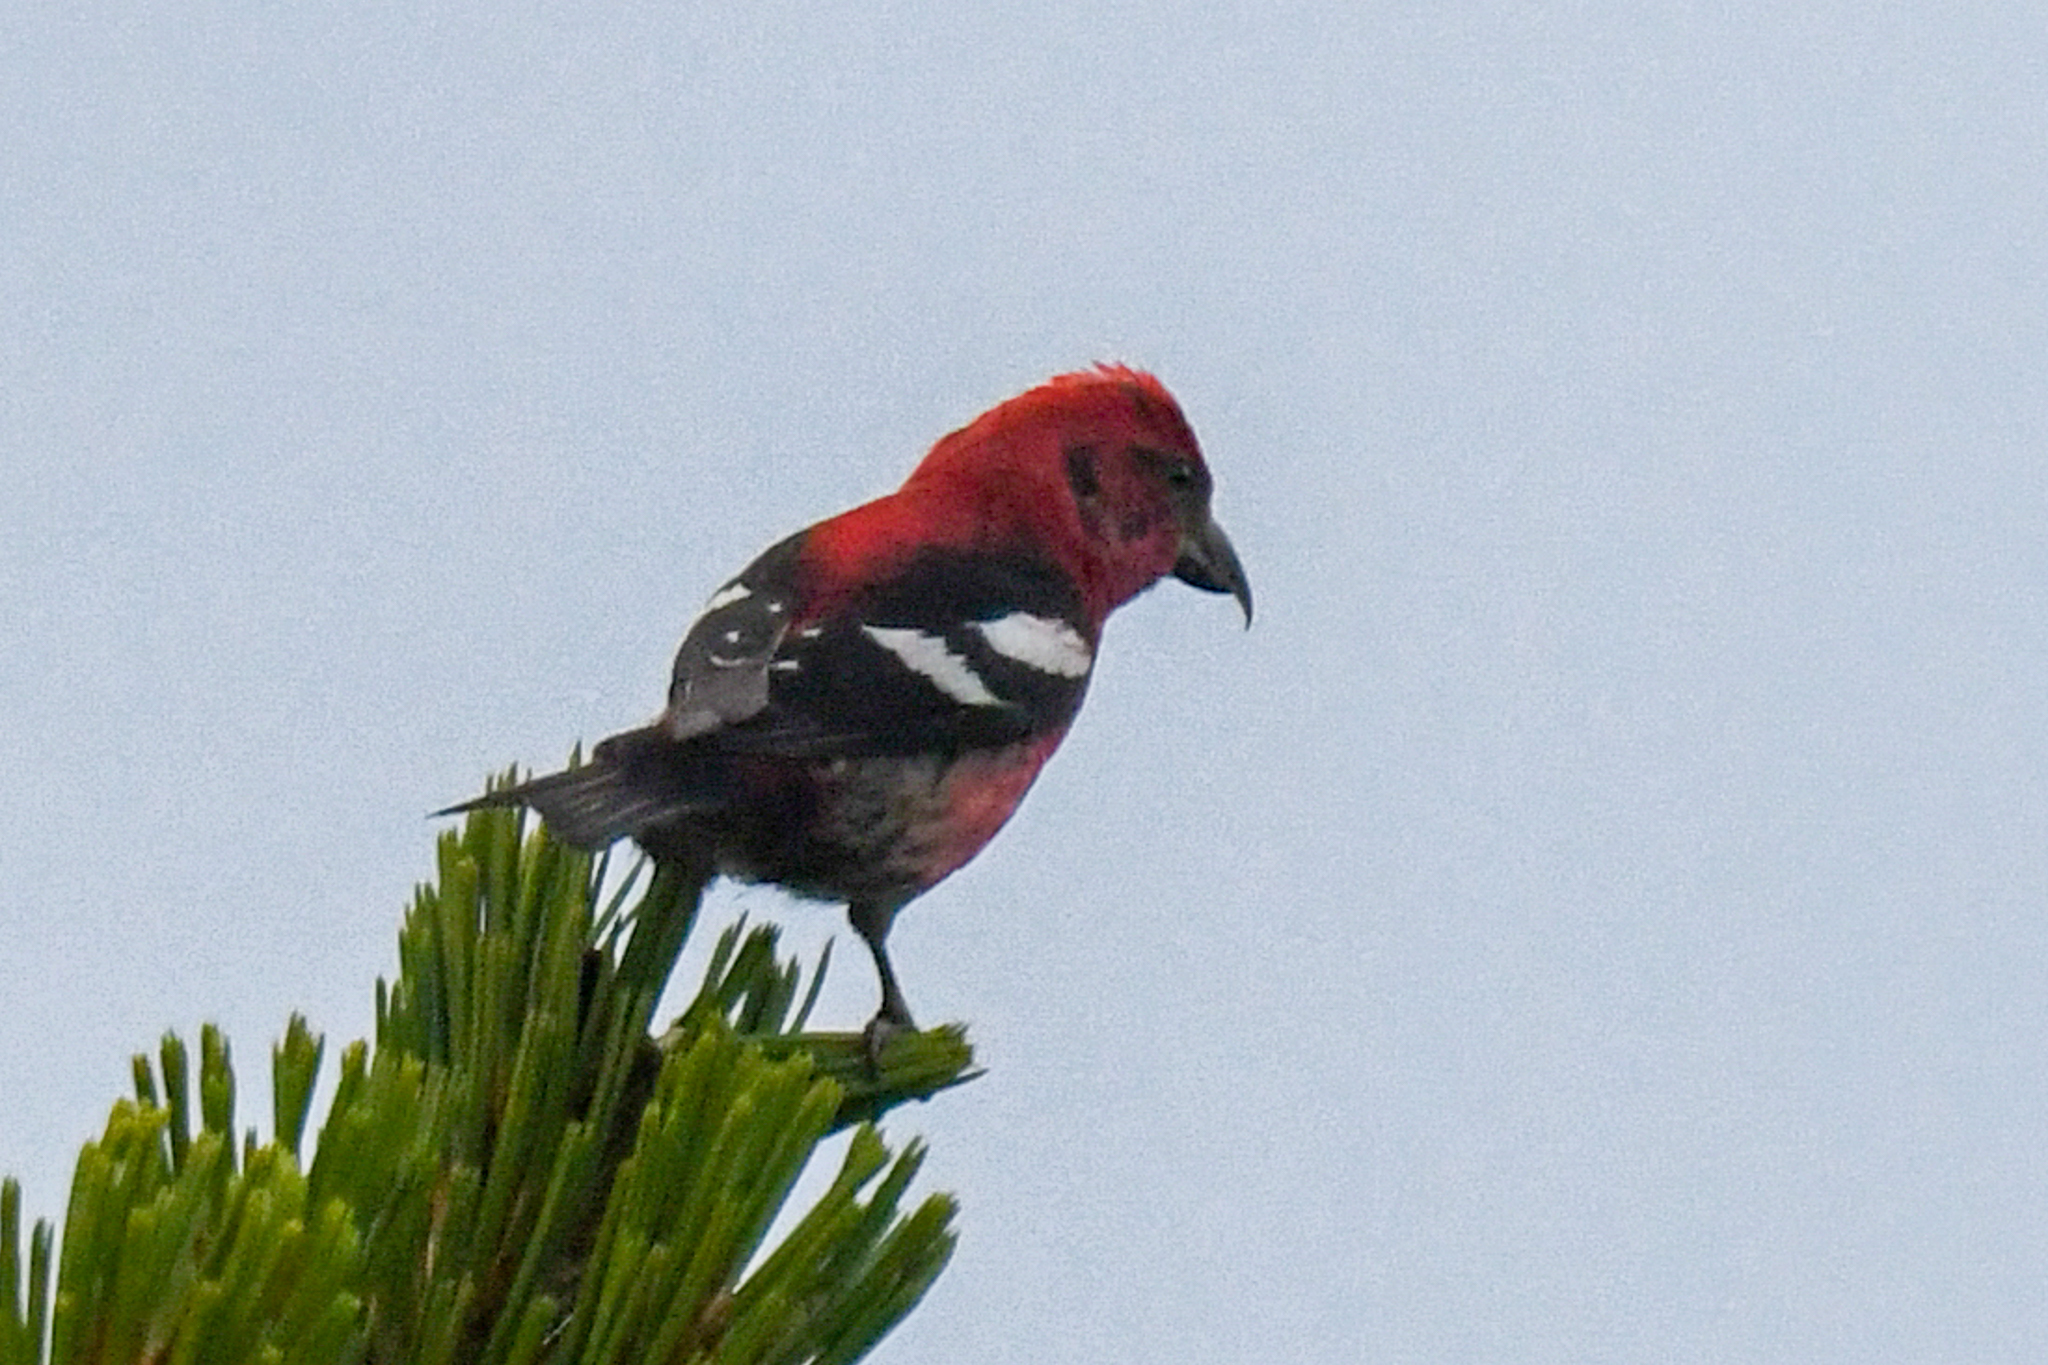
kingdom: Animalia
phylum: Chordata
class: Aves
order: Passeriformes
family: Fringillidae
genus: Loxia
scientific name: Loxia leucoptera
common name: Two-barred crossbill
